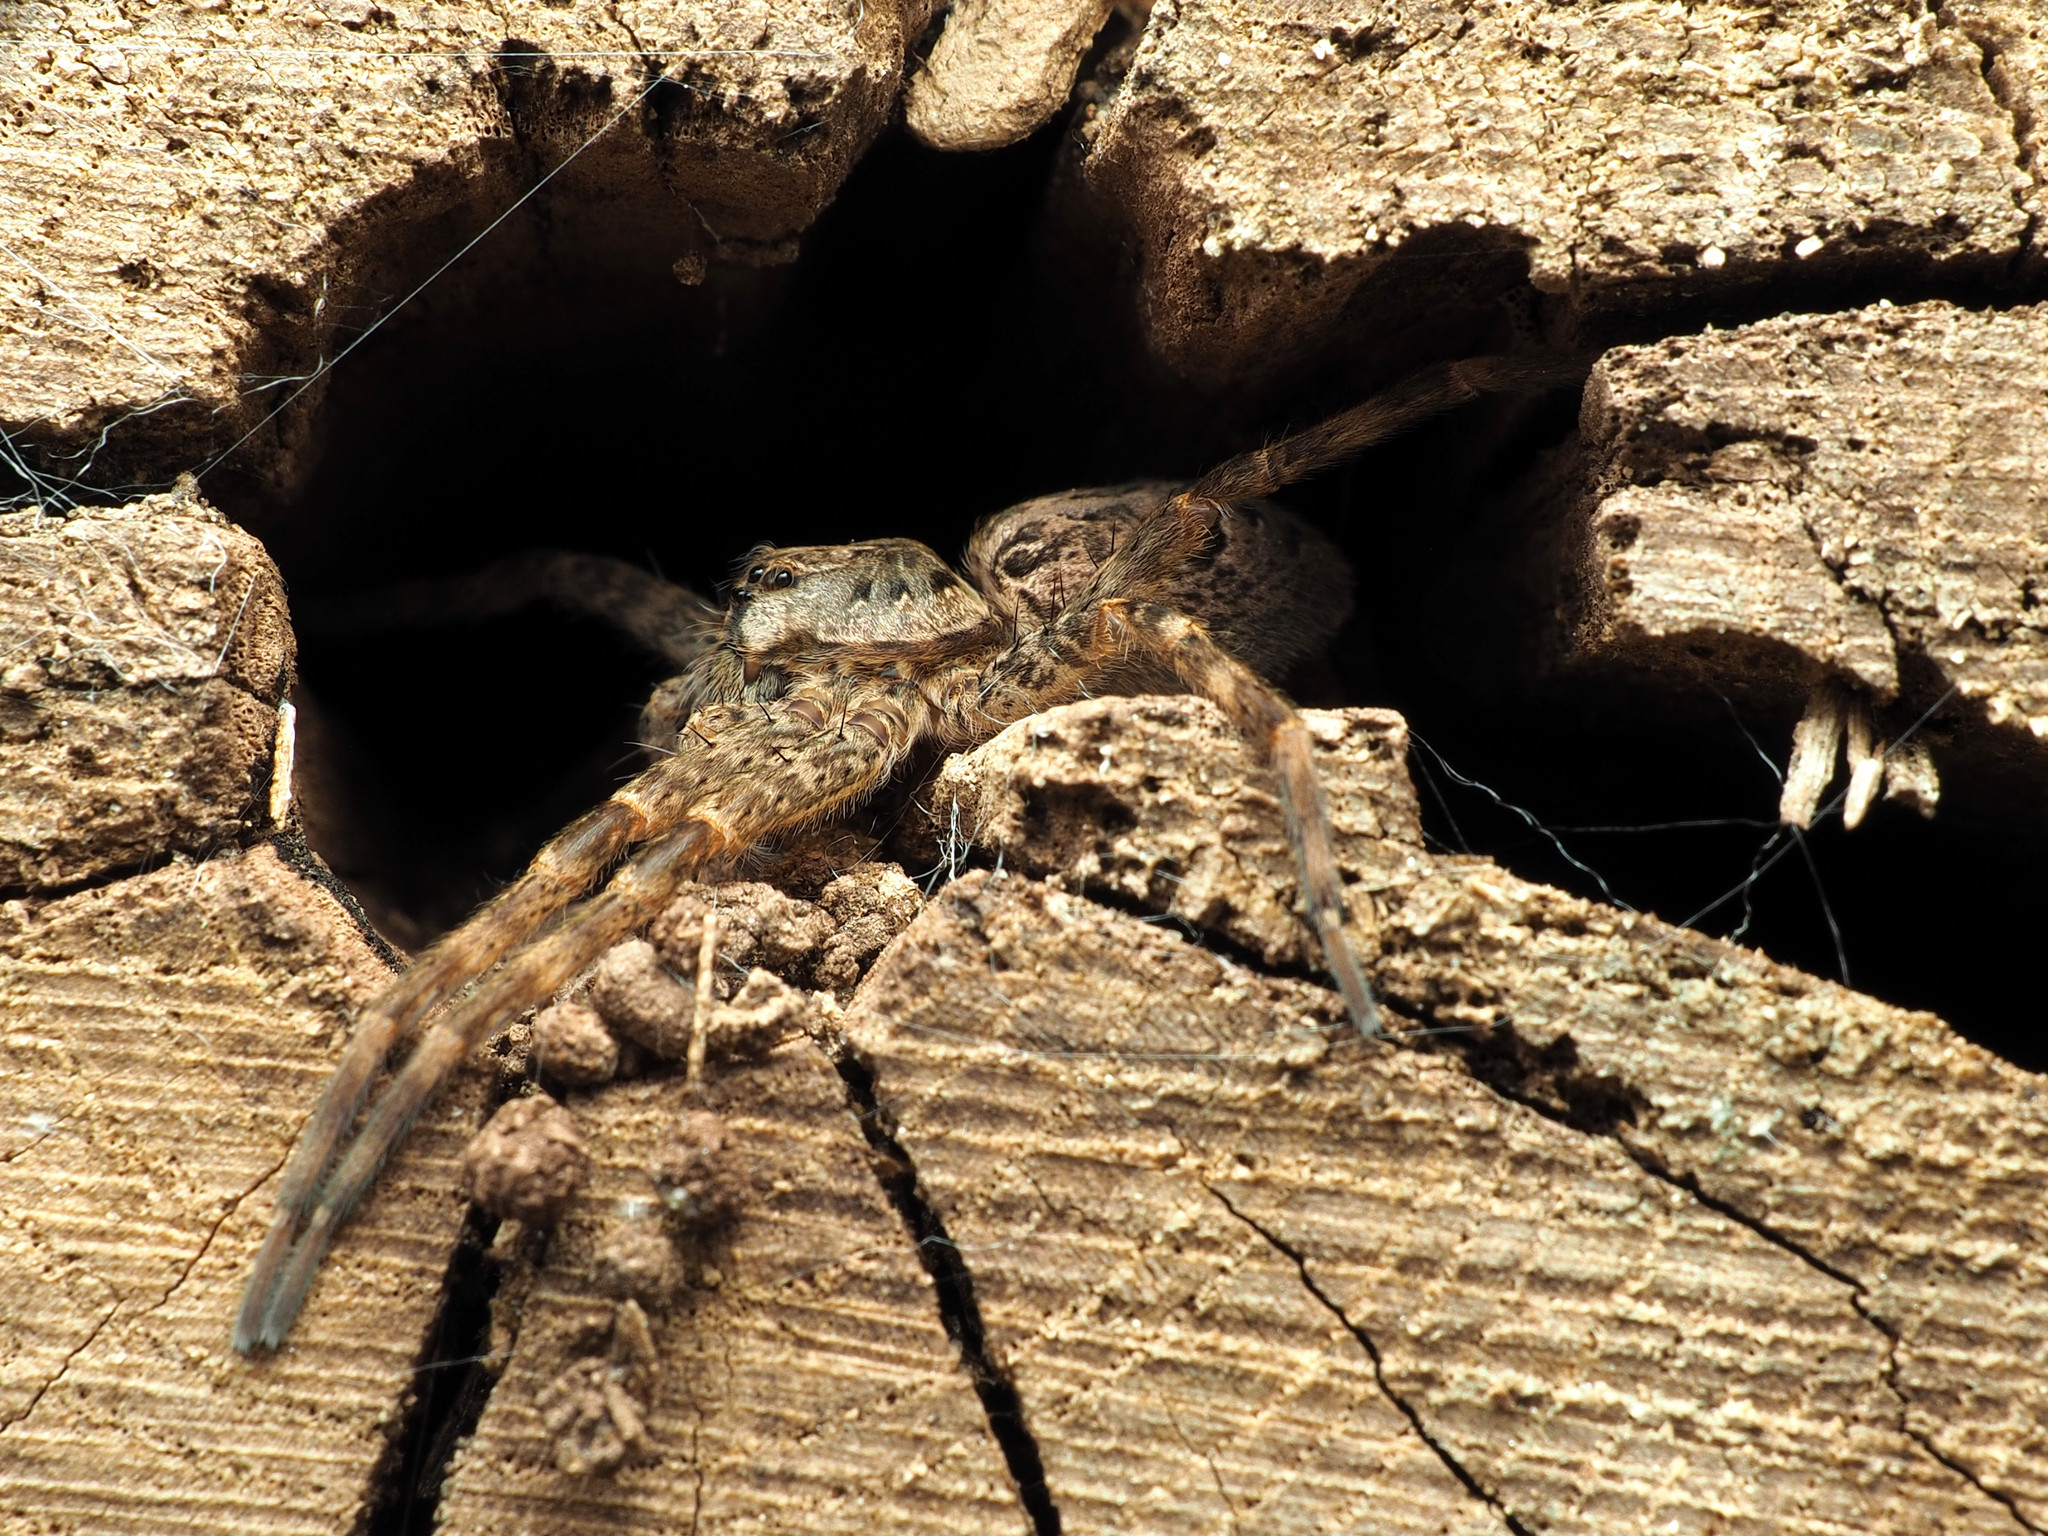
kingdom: Animalia
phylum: Arthropoda
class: Arachnida
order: Araneae
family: Pisauridae
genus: Dolomedes
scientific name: Dolomedes tenebrosus
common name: Dark fishing spider
